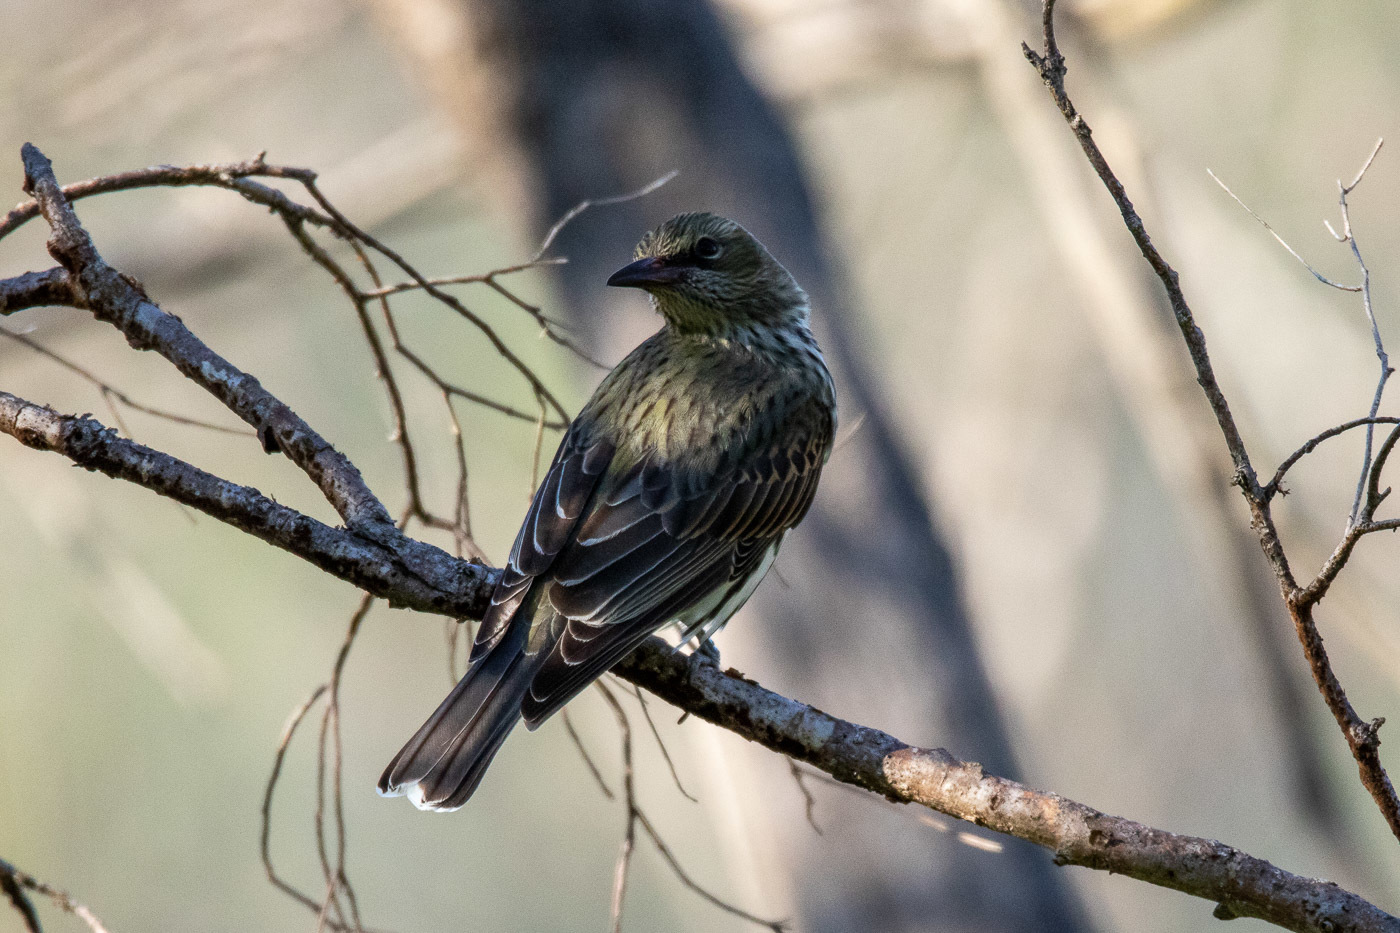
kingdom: Animalia
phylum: Chordata
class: Aves
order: Passeriformes
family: Oriolidae
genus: Oriolus
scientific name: Oriolus sagittatus
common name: Olive-backed oriole
